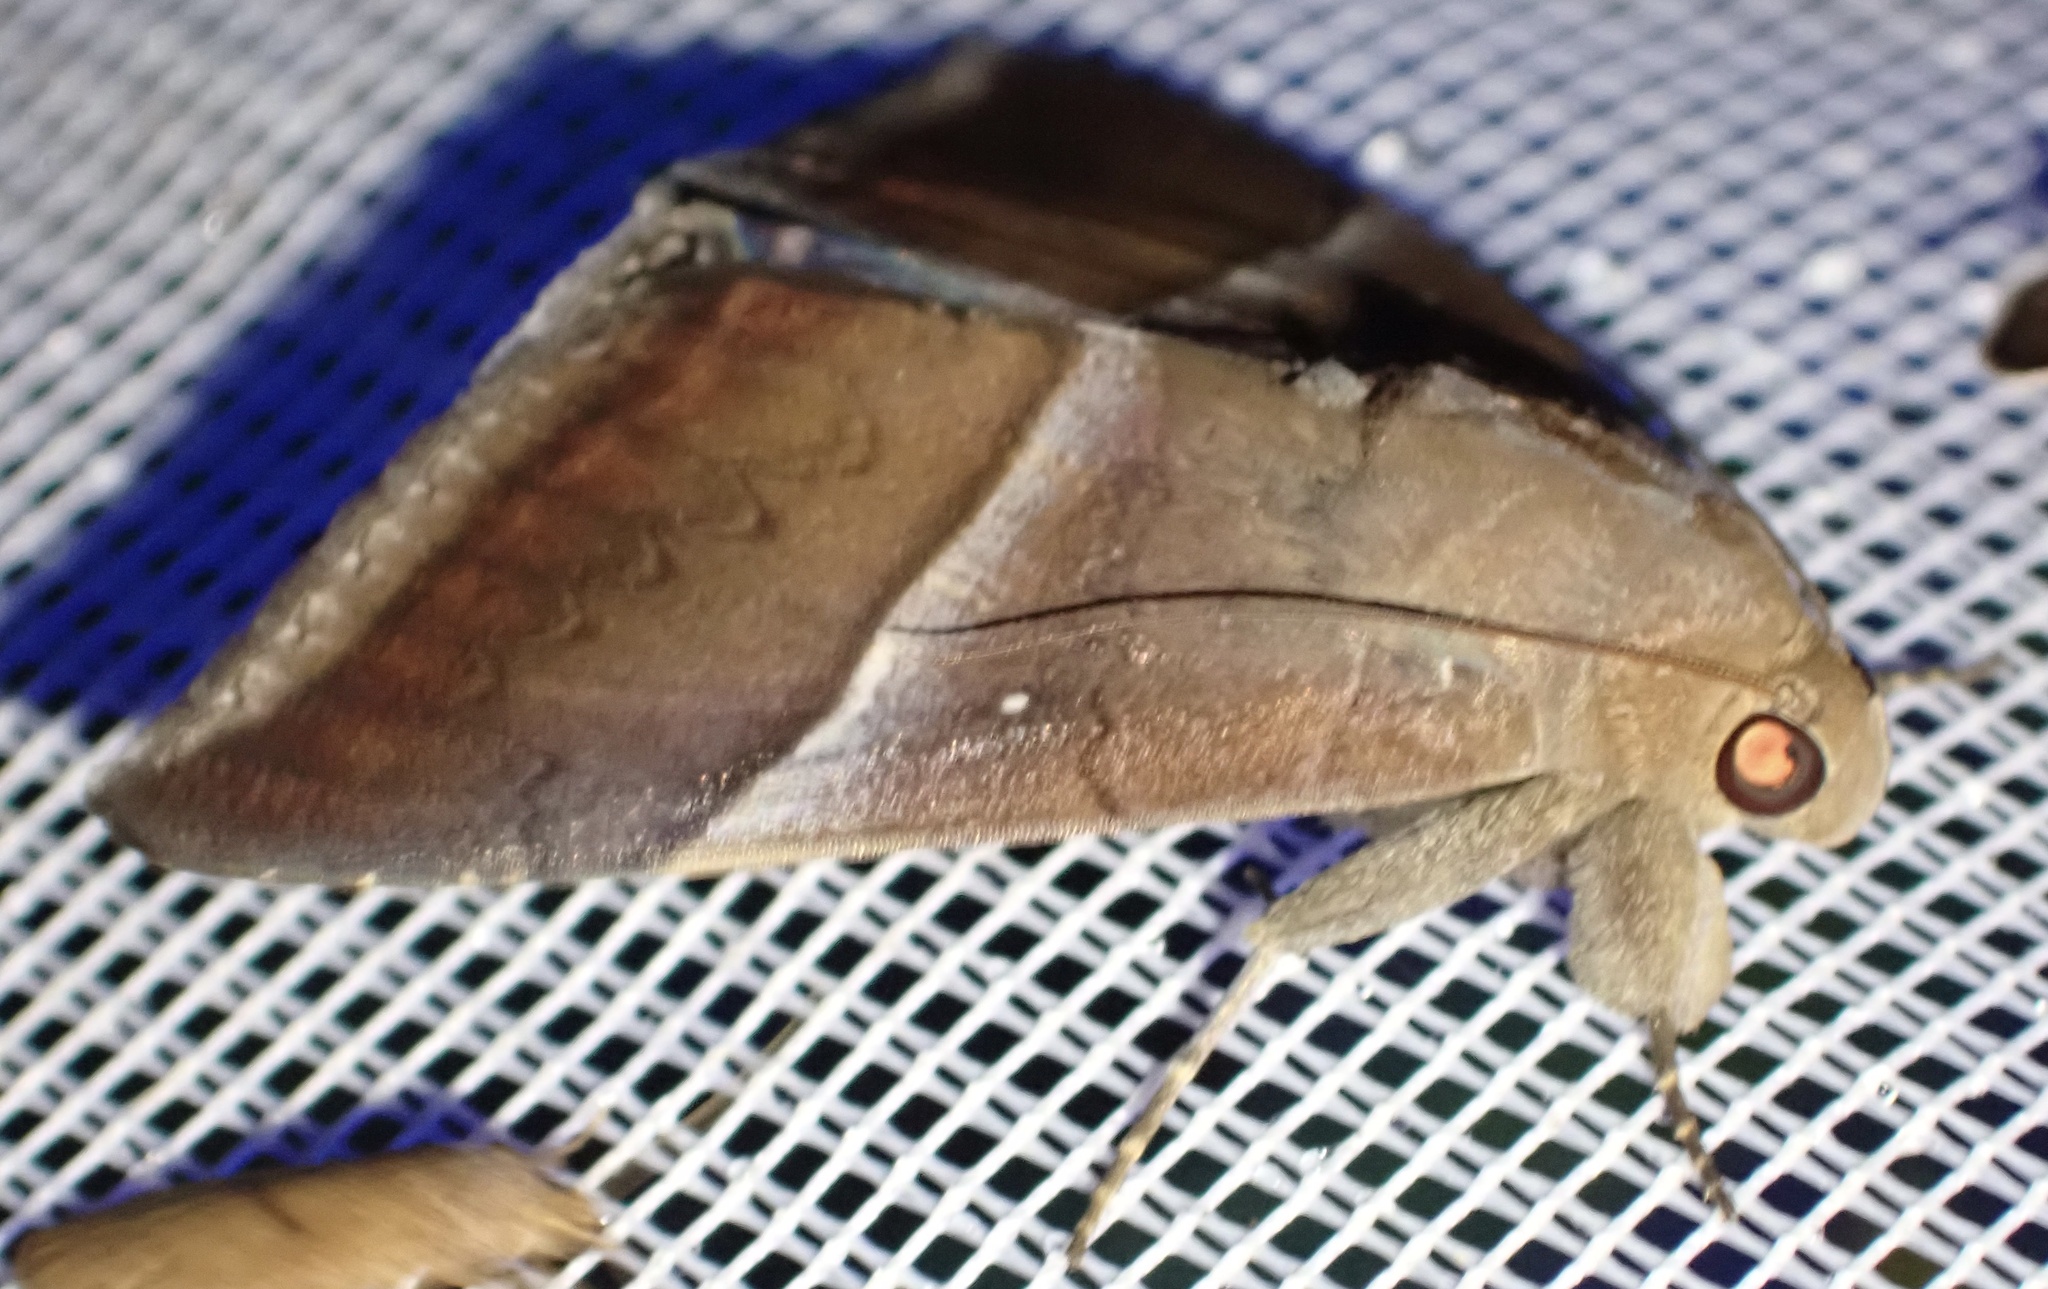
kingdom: Animalia
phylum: Arthropoda
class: Insecta
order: Lepidoptera
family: Erebidae
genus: Parallelia
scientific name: Parallelia
